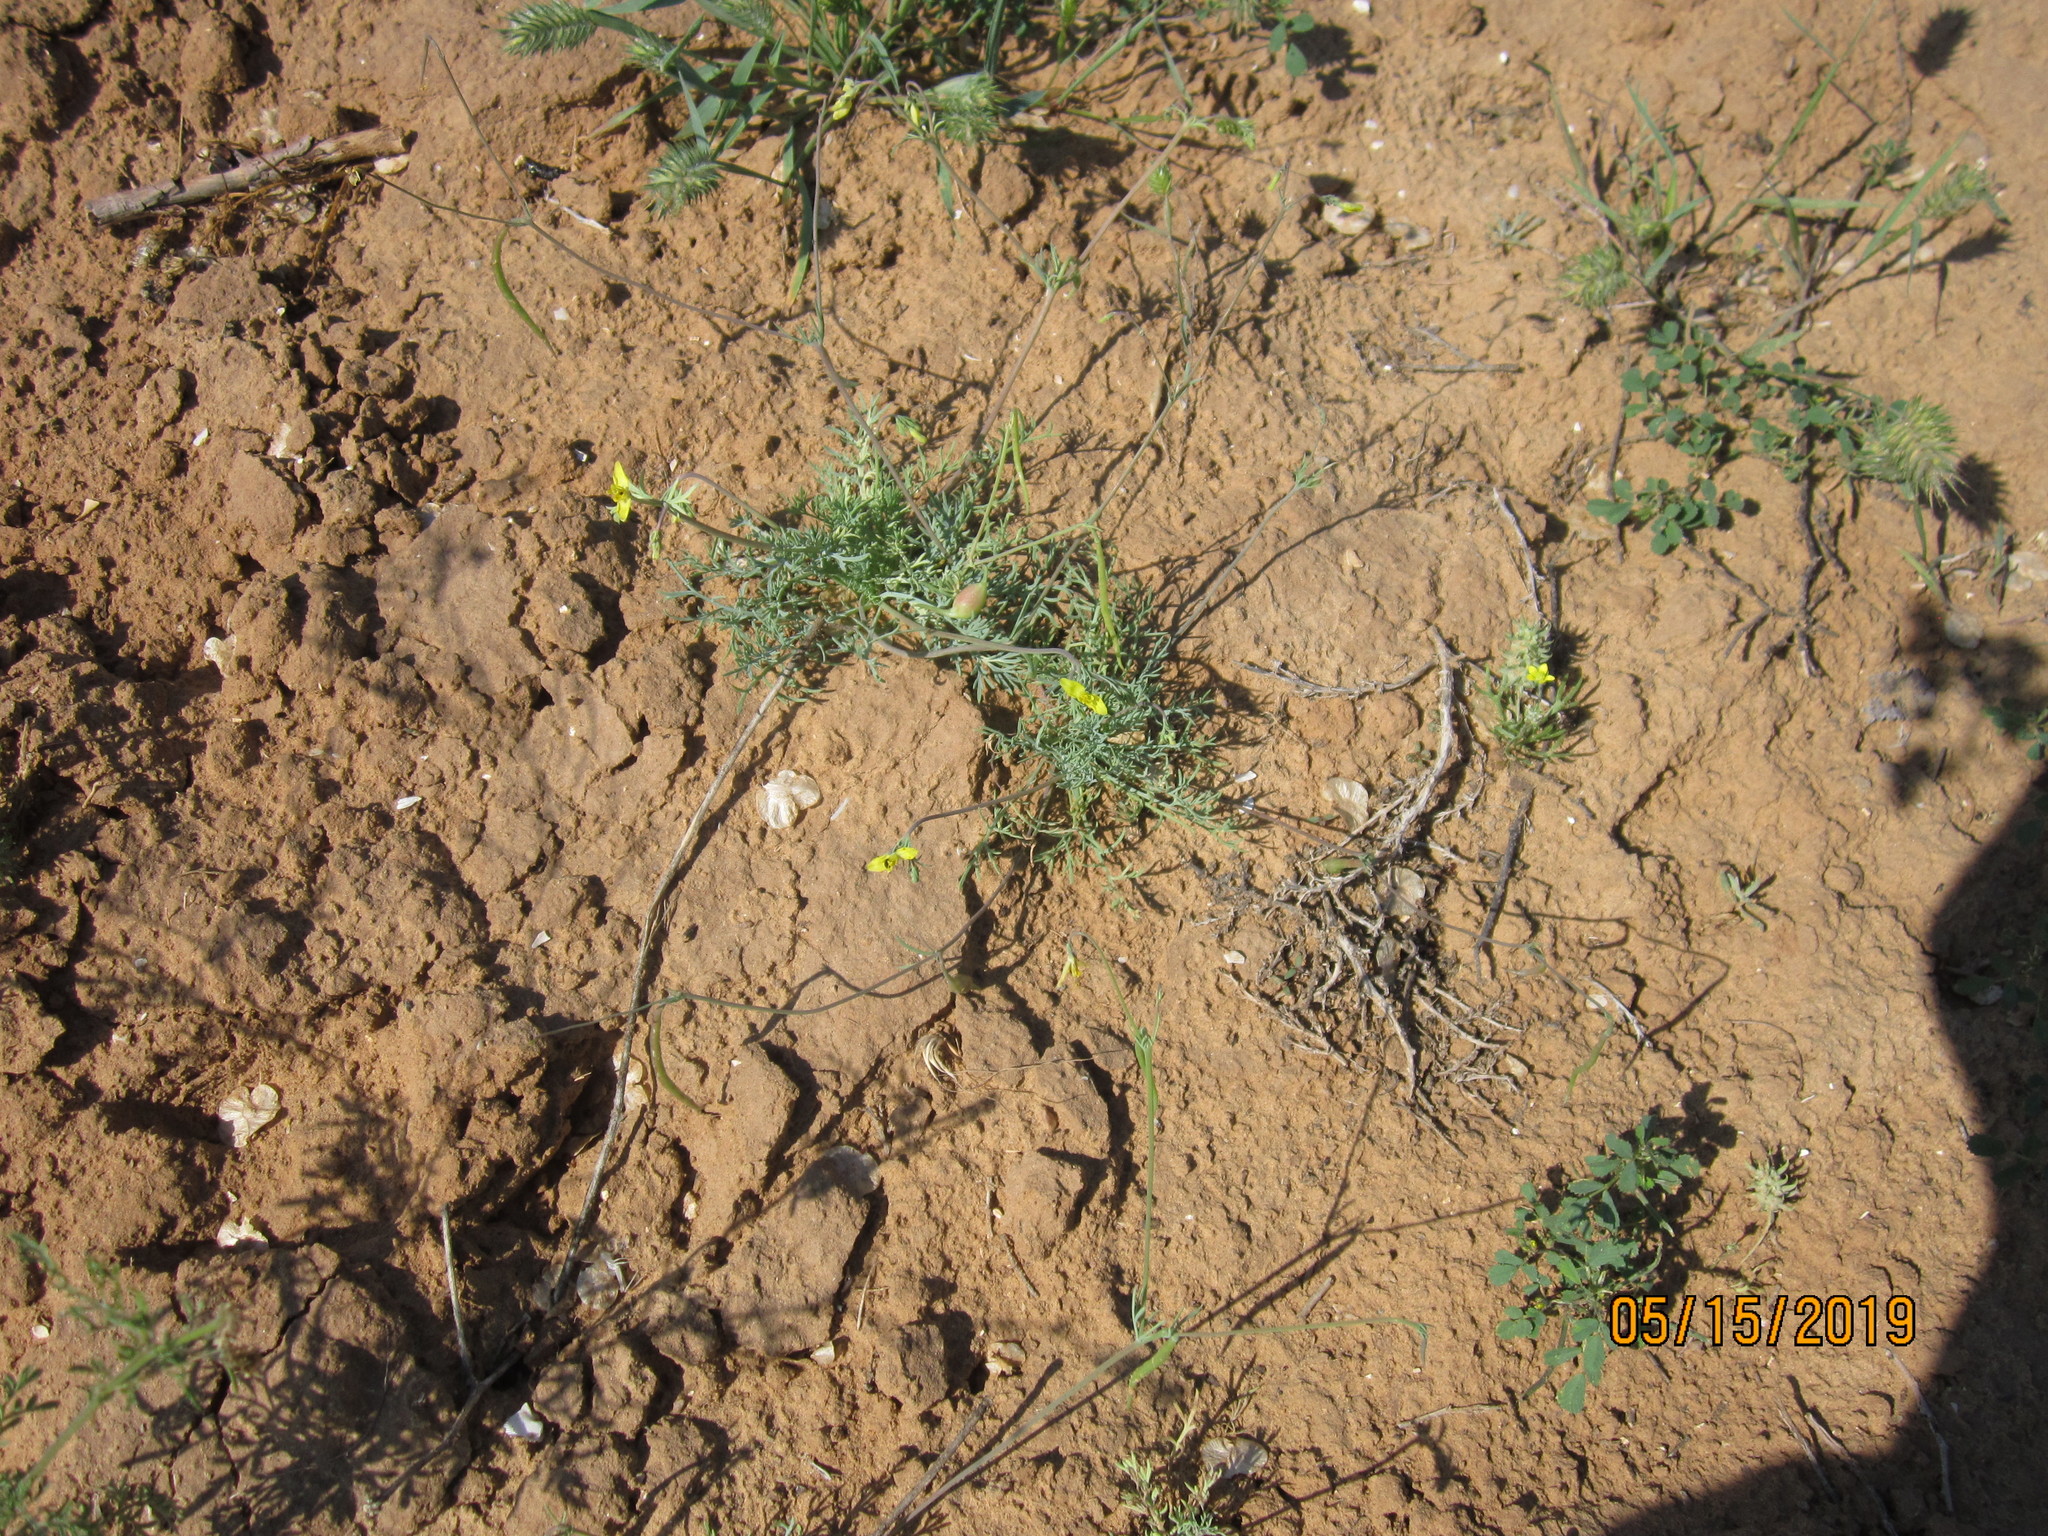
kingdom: Plantae
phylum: Tracheophyta
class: Magnoliopsida
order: Ranunculales
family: Papaveraceae
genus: Hypecoum
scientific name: Hypecoum pendulum
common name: Nodding hypecoum
